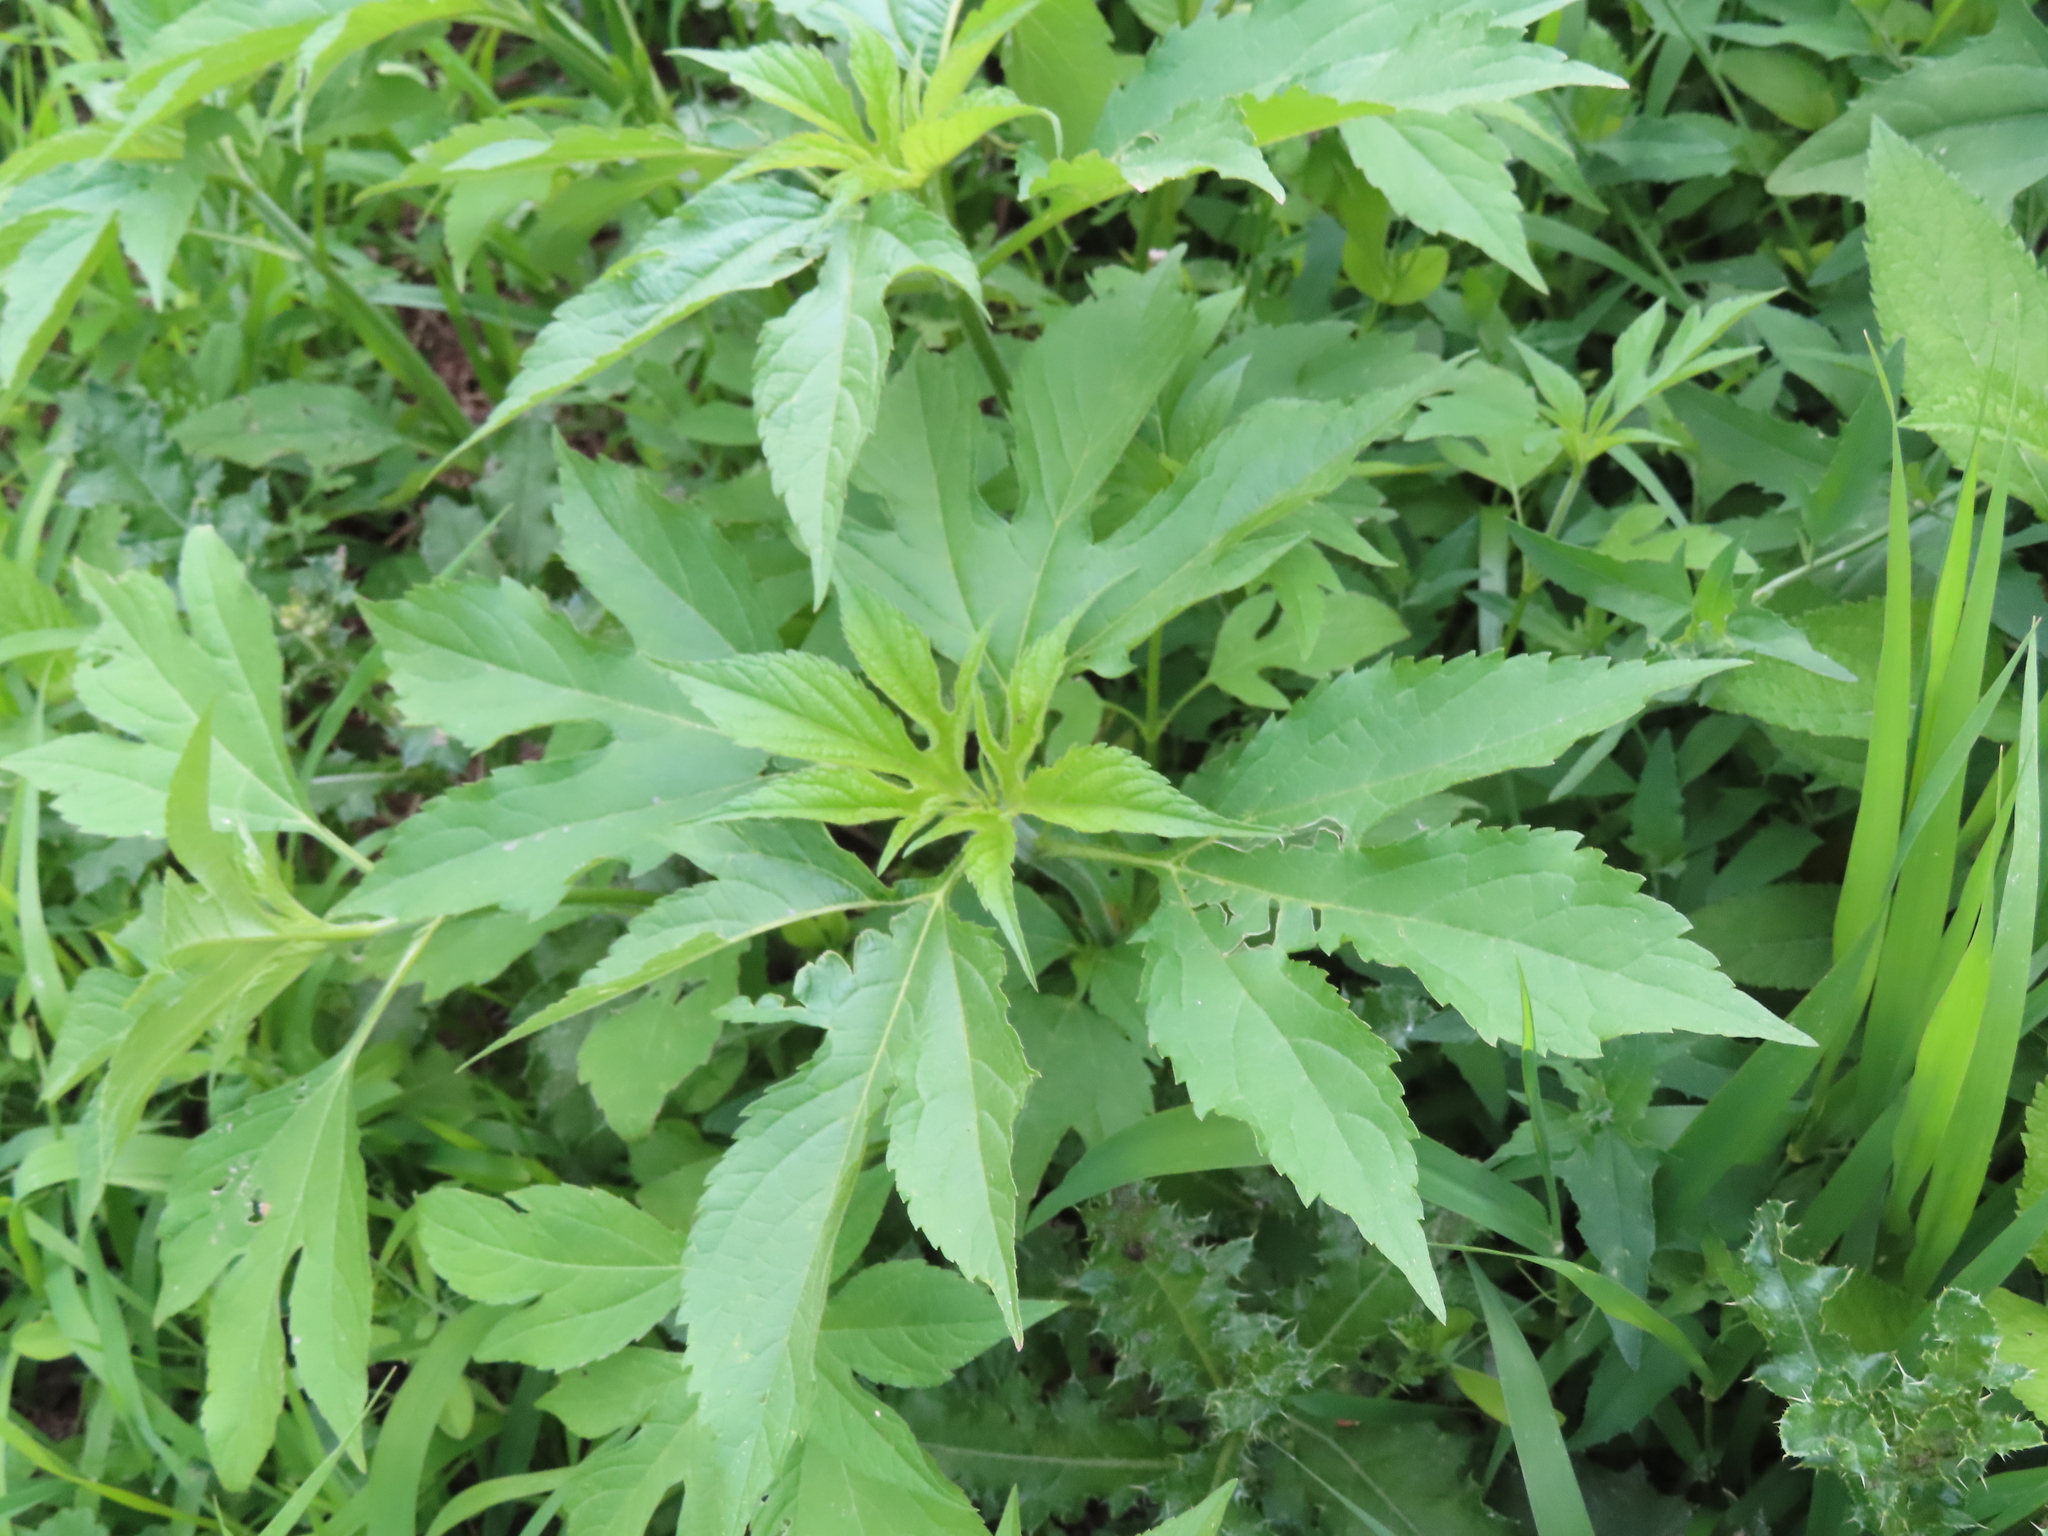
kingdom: Plantae
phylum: Tracheophyta
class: Magnoliopsida
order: Asterales
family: Asteraceae
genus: Ambrosia
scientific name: Ambrosia trifida
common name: Giant ragweed
